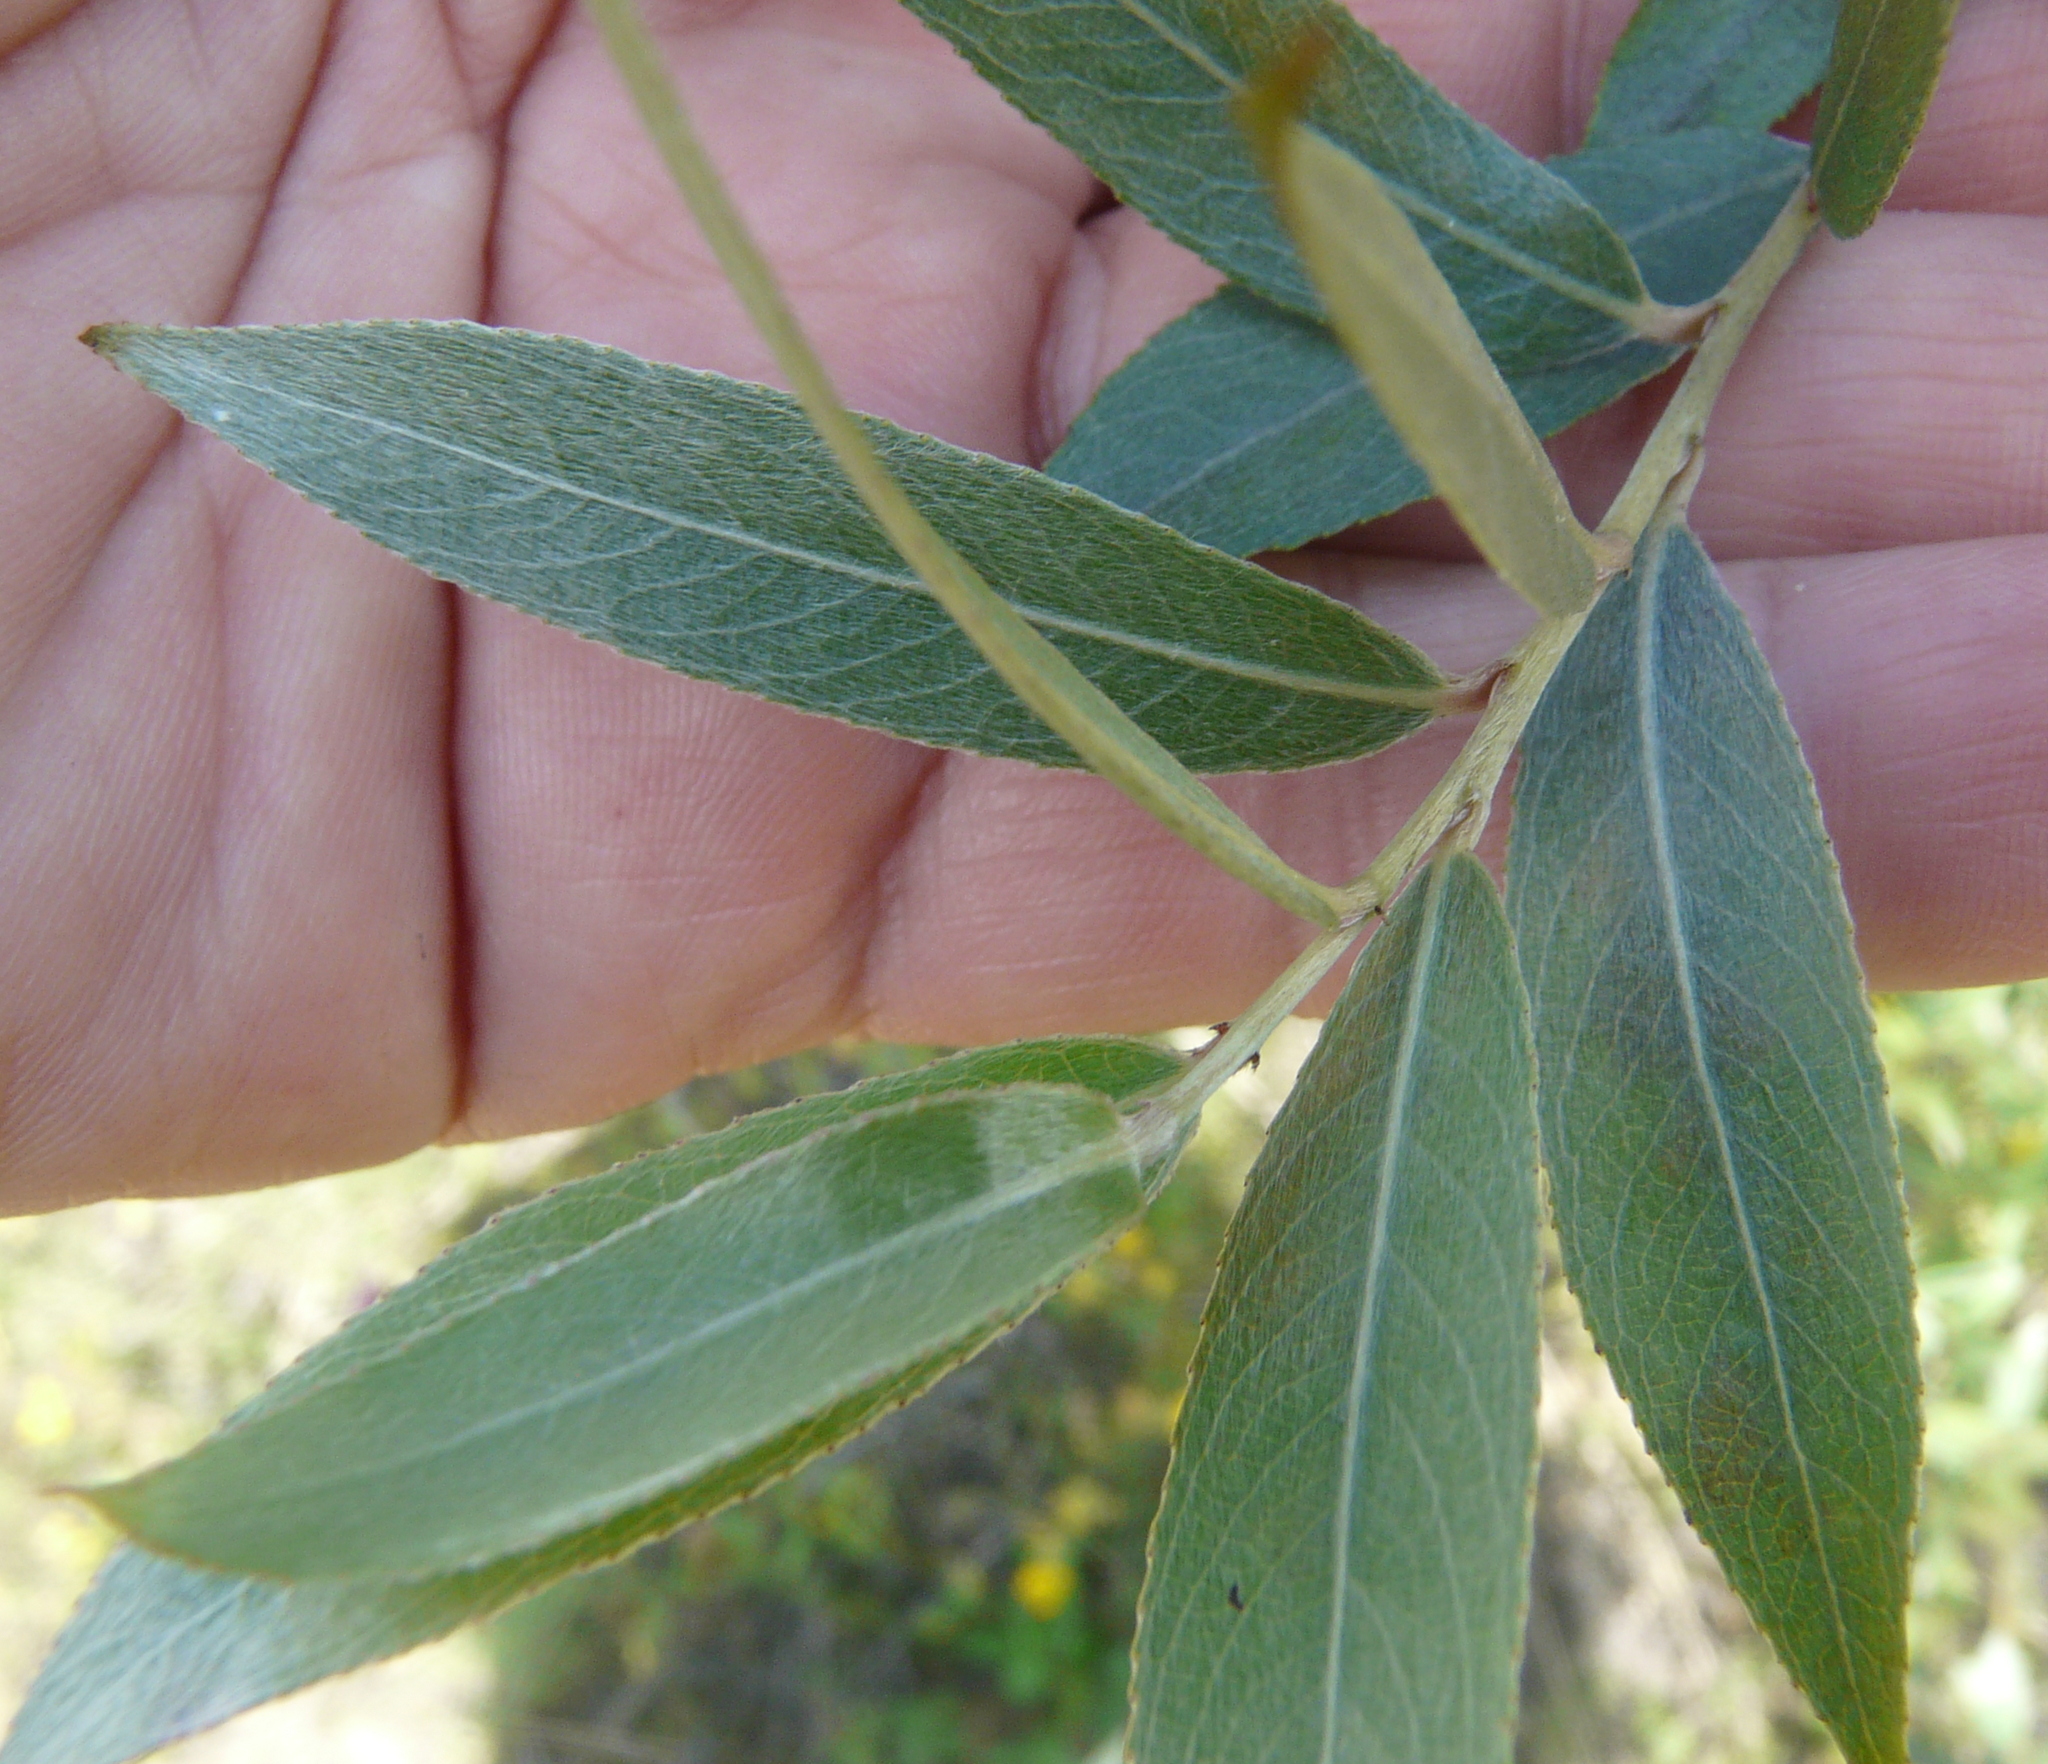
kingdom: Plantae
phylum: Tracheophyta
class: Magnoliopsida
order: Malpighiales
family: Salicaceae
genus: Salix
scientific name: Salix alba
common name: White willow
